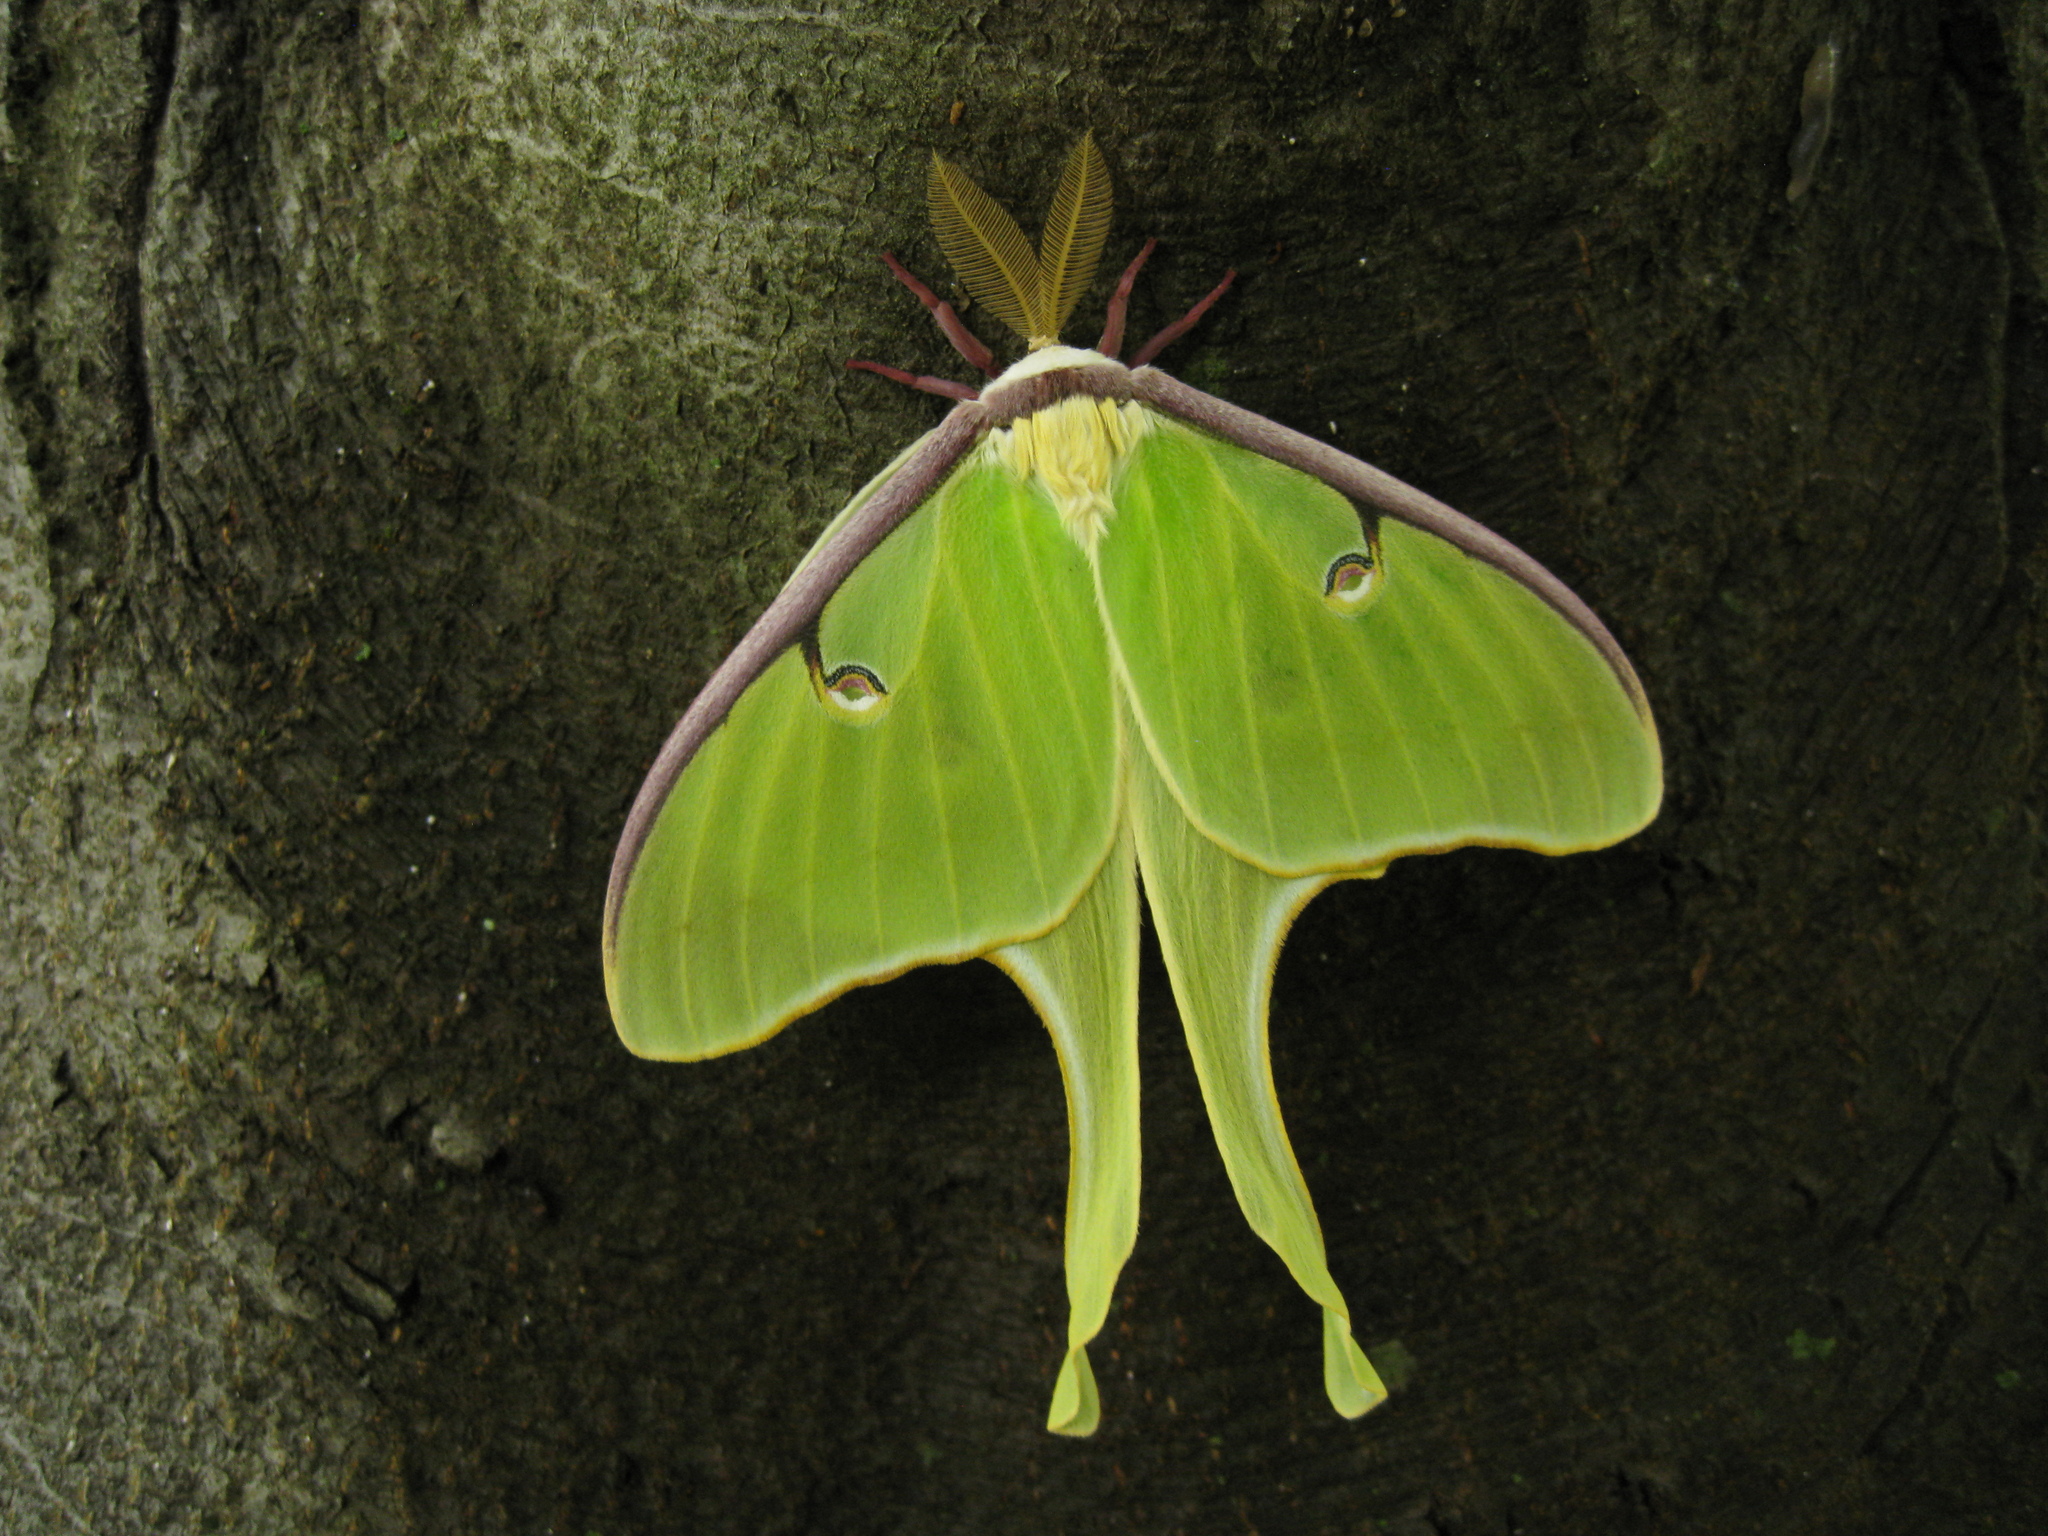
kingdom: Animalia
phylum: Arthropoda
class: Insecta
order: Lepidoptera
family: Saturniidae
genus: Actias
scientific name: Actias luna
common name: Luna moth
